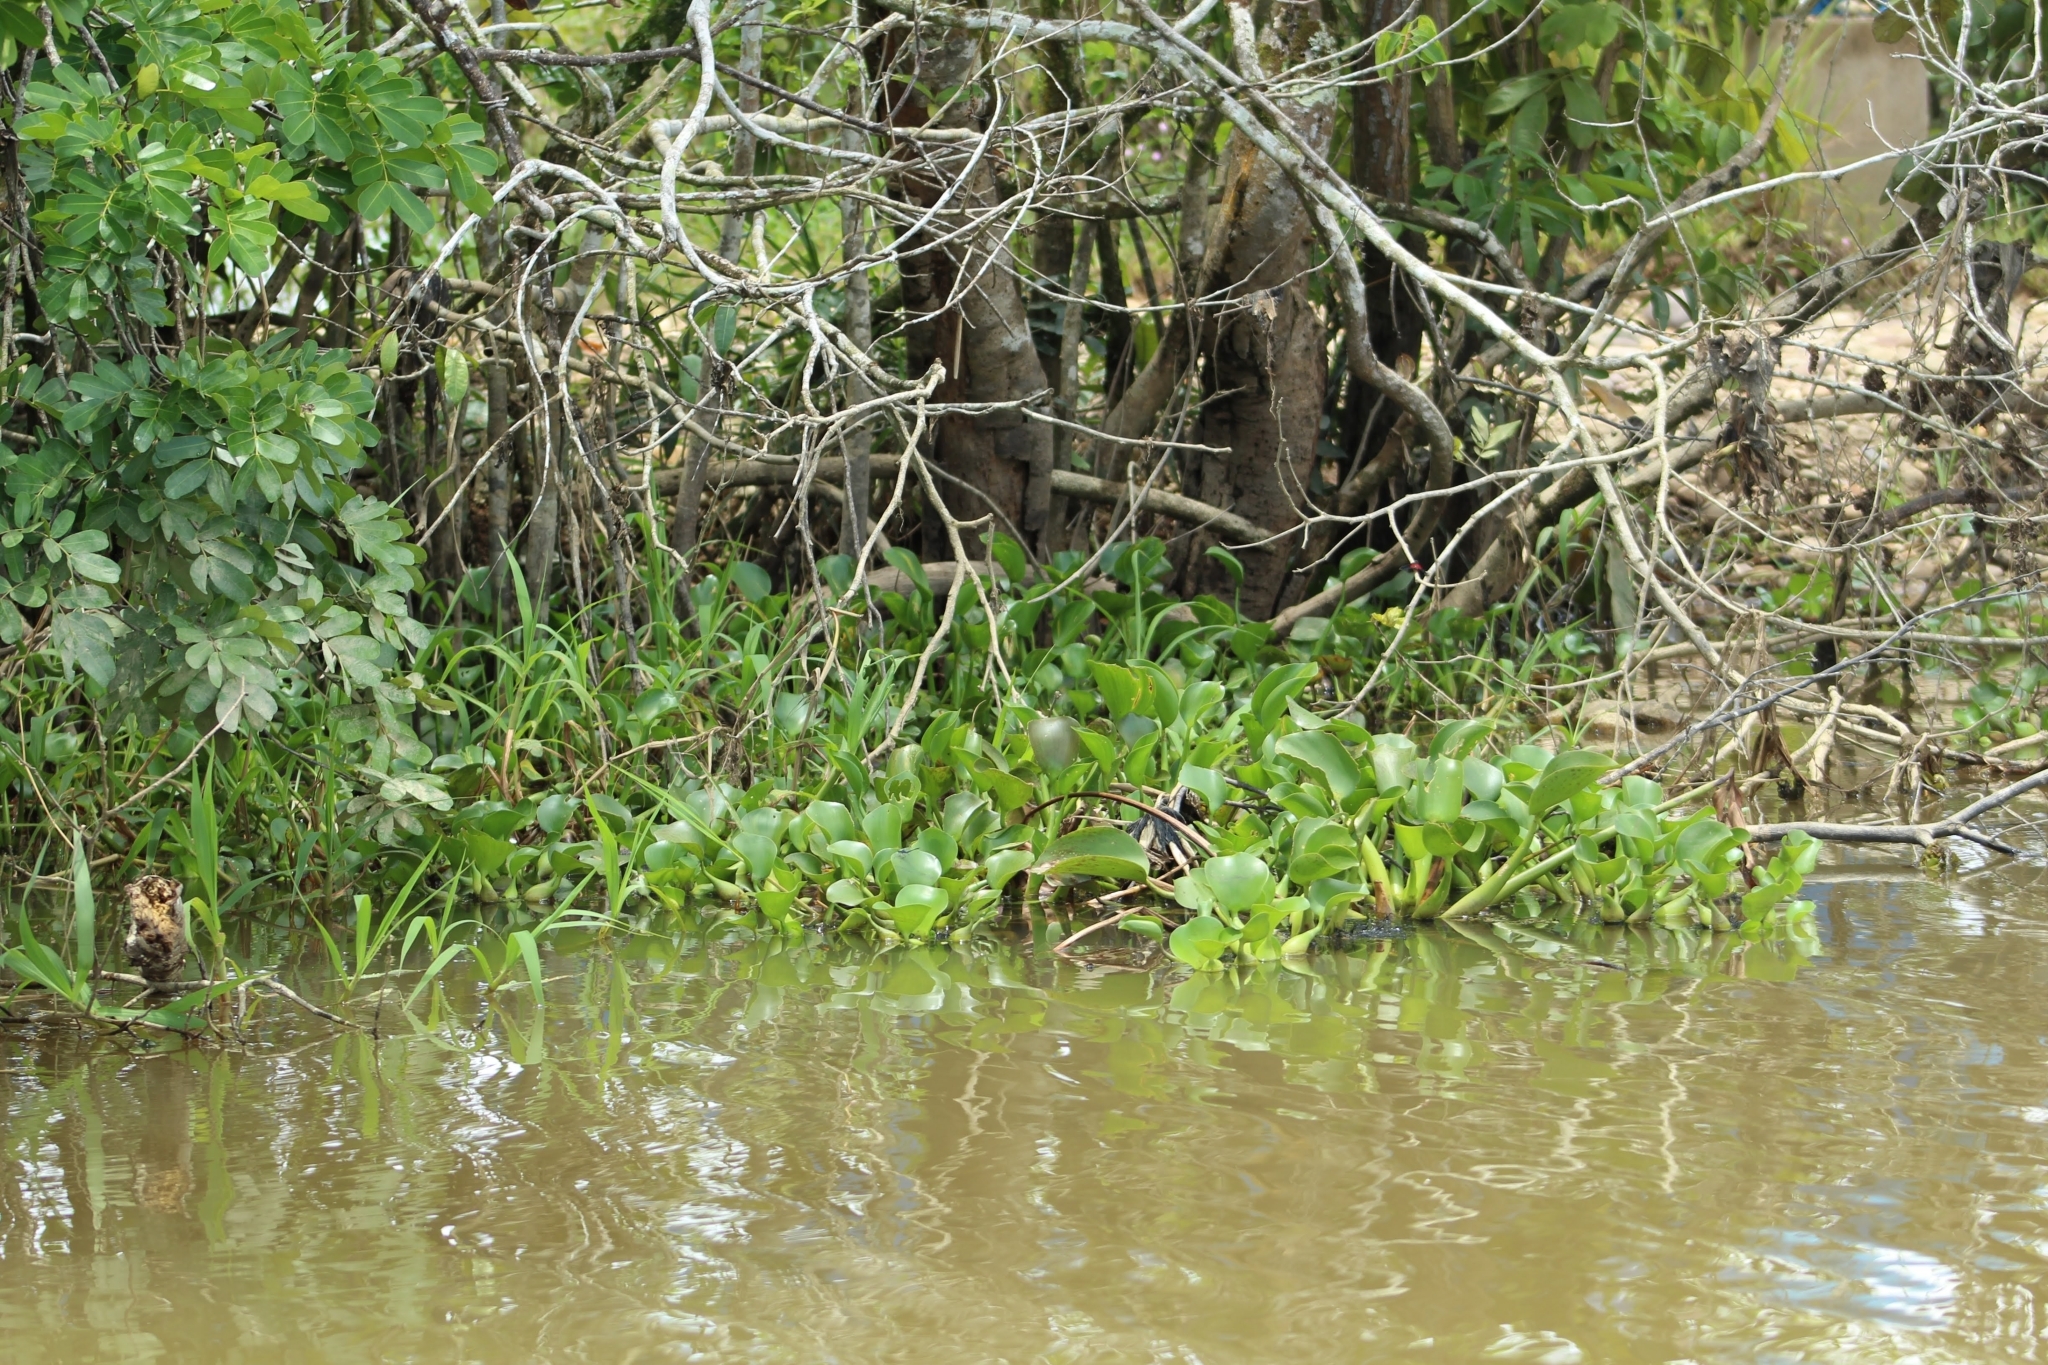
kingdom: Plantae
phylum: Tracheophyta
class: Liliopsida
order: Commelinales
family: Pontederiaceae
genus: Pontederia
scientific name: Pontederia crassipes
